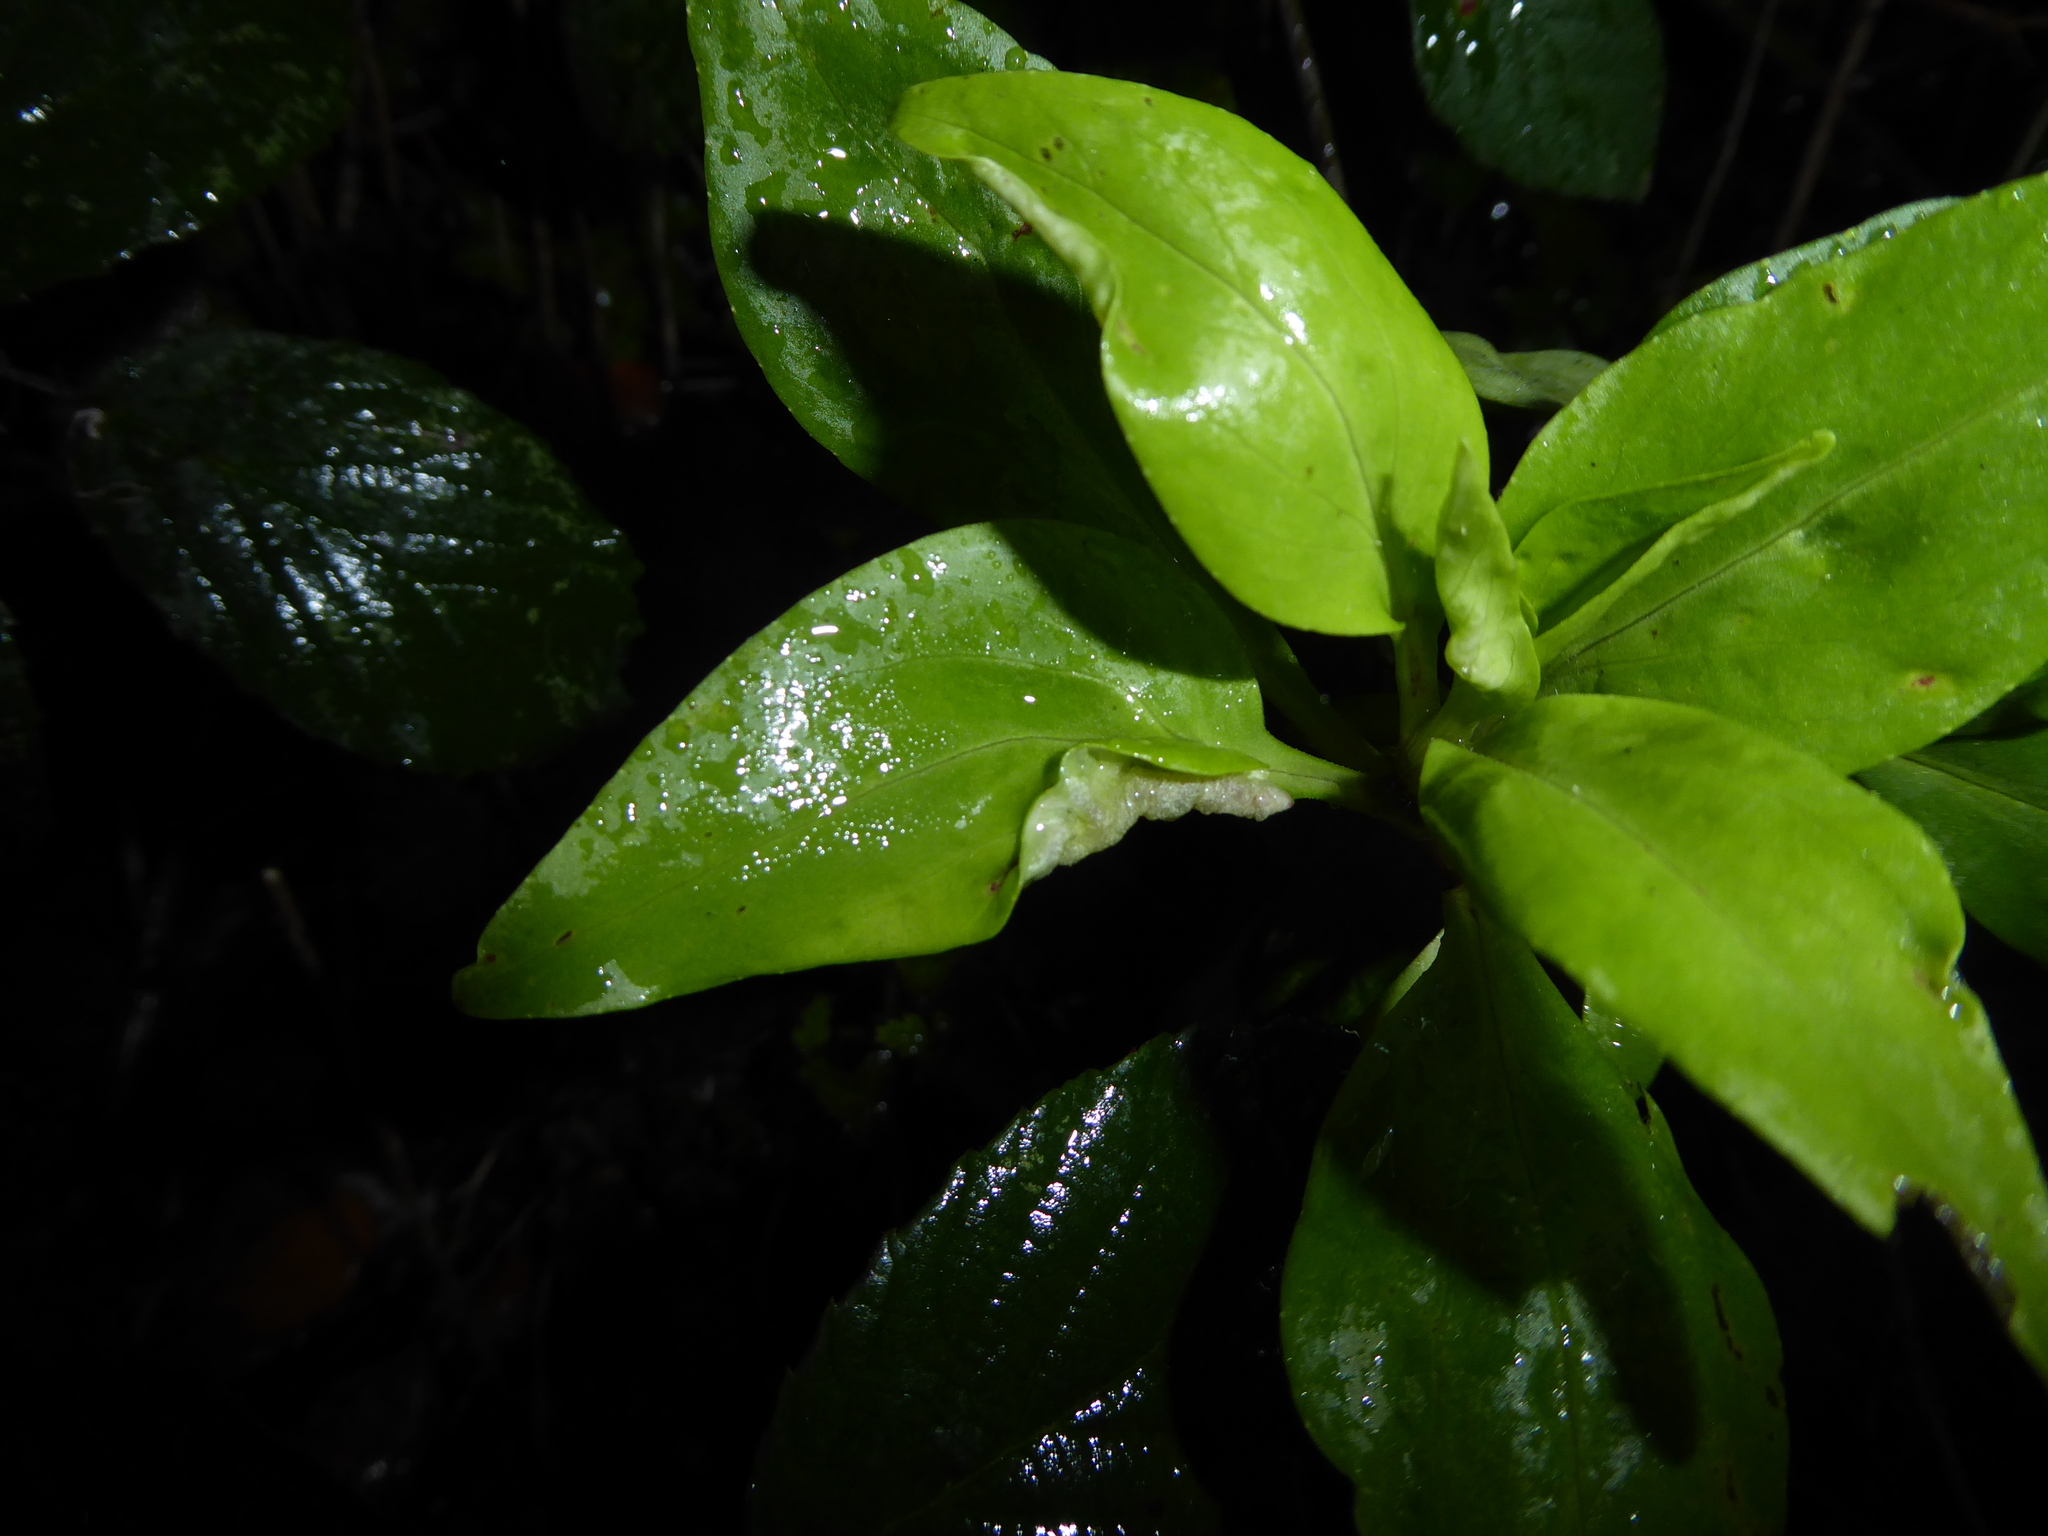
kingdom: Animalia
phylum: Arthropoda
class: Insecta
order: Hemiptera
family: Triozidae
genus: Trioza
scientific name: Trioza centranthi
